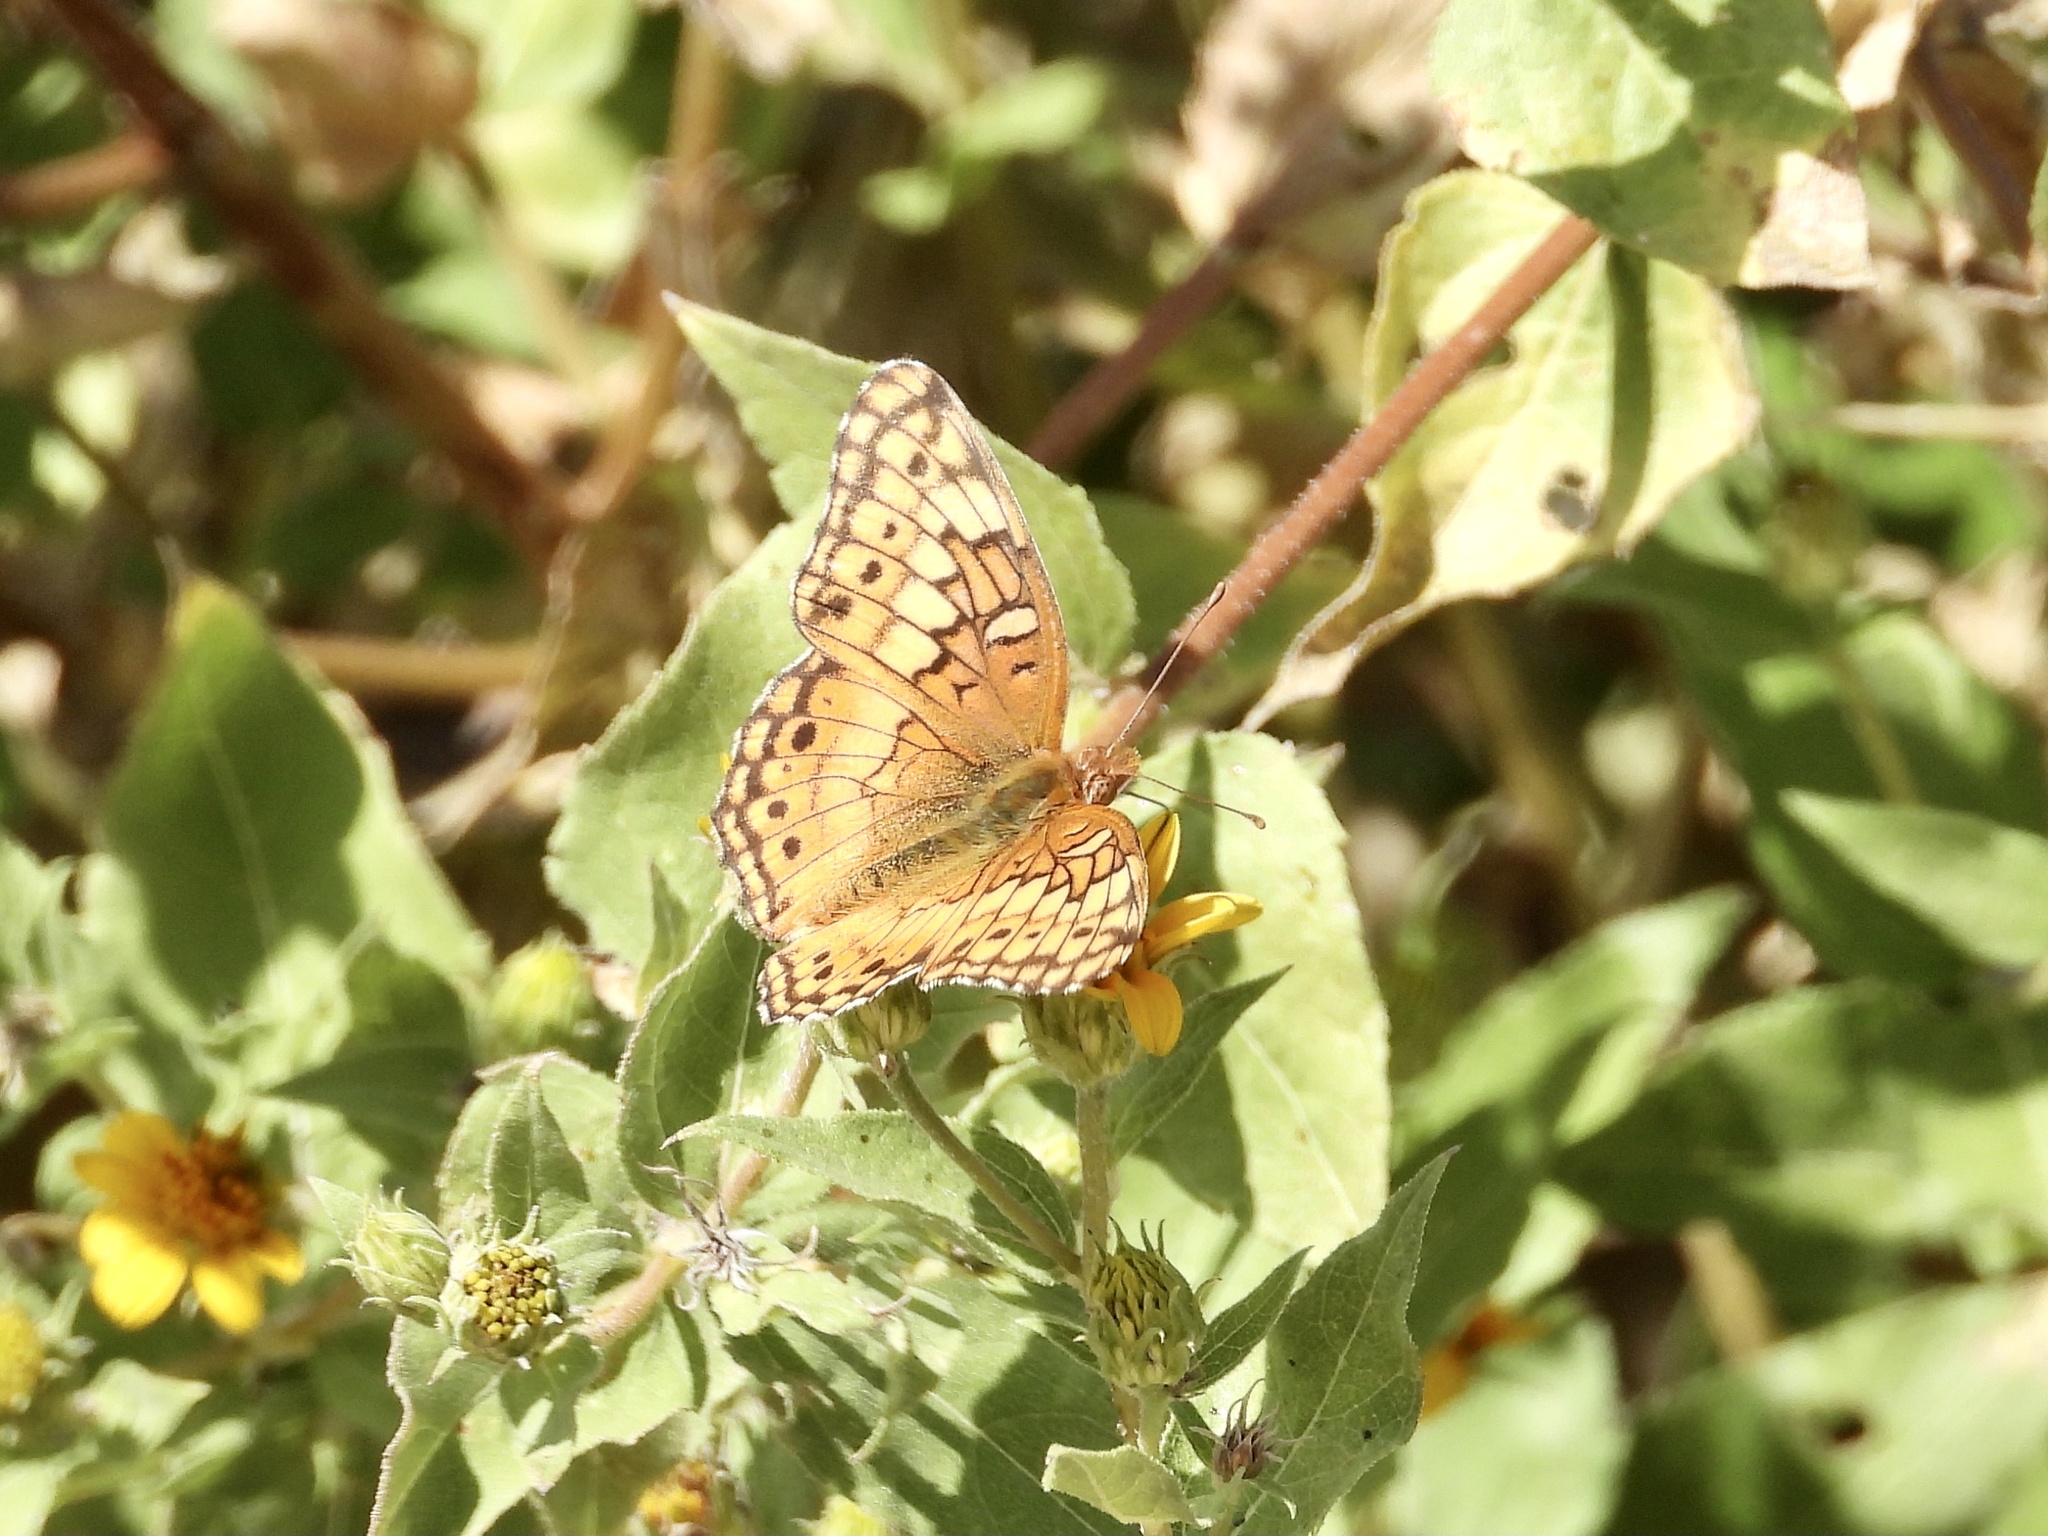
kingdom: Animalia
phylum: Arthropoda
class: Insecta
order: Lepidoptera
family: Nymphalidae
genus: Euptoieta
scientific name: Euptoieta claudia
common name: Variegated fritillary
